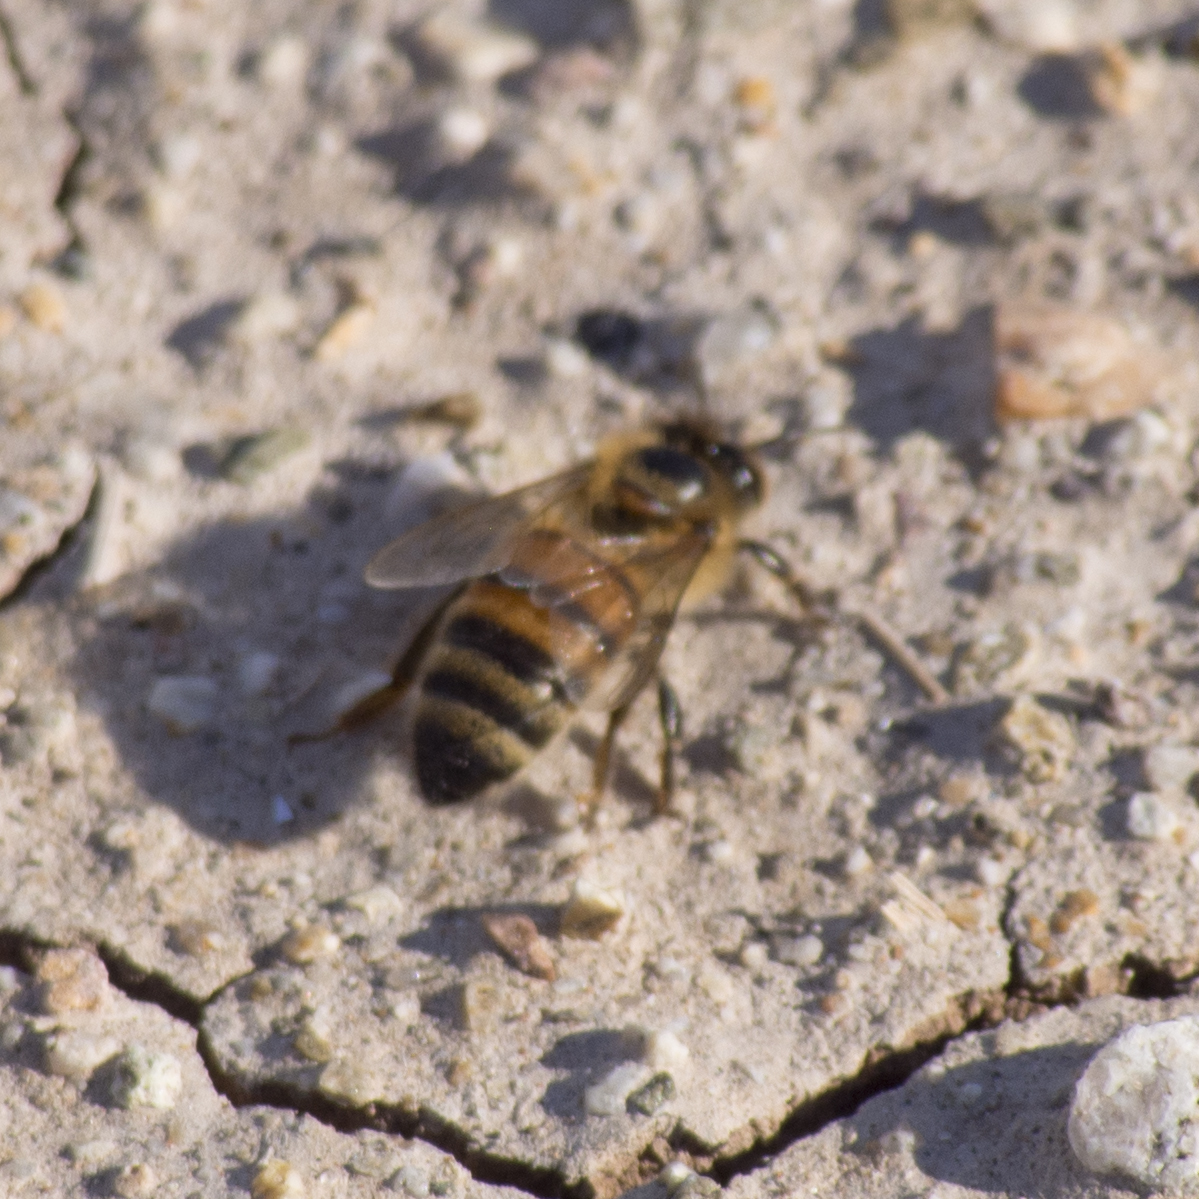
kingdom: Animalia
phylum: Arthropoda
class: Insecta
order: Hymenoptera
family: Apidae
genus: Apis
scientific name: Apis mellifera
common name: Honey bee
